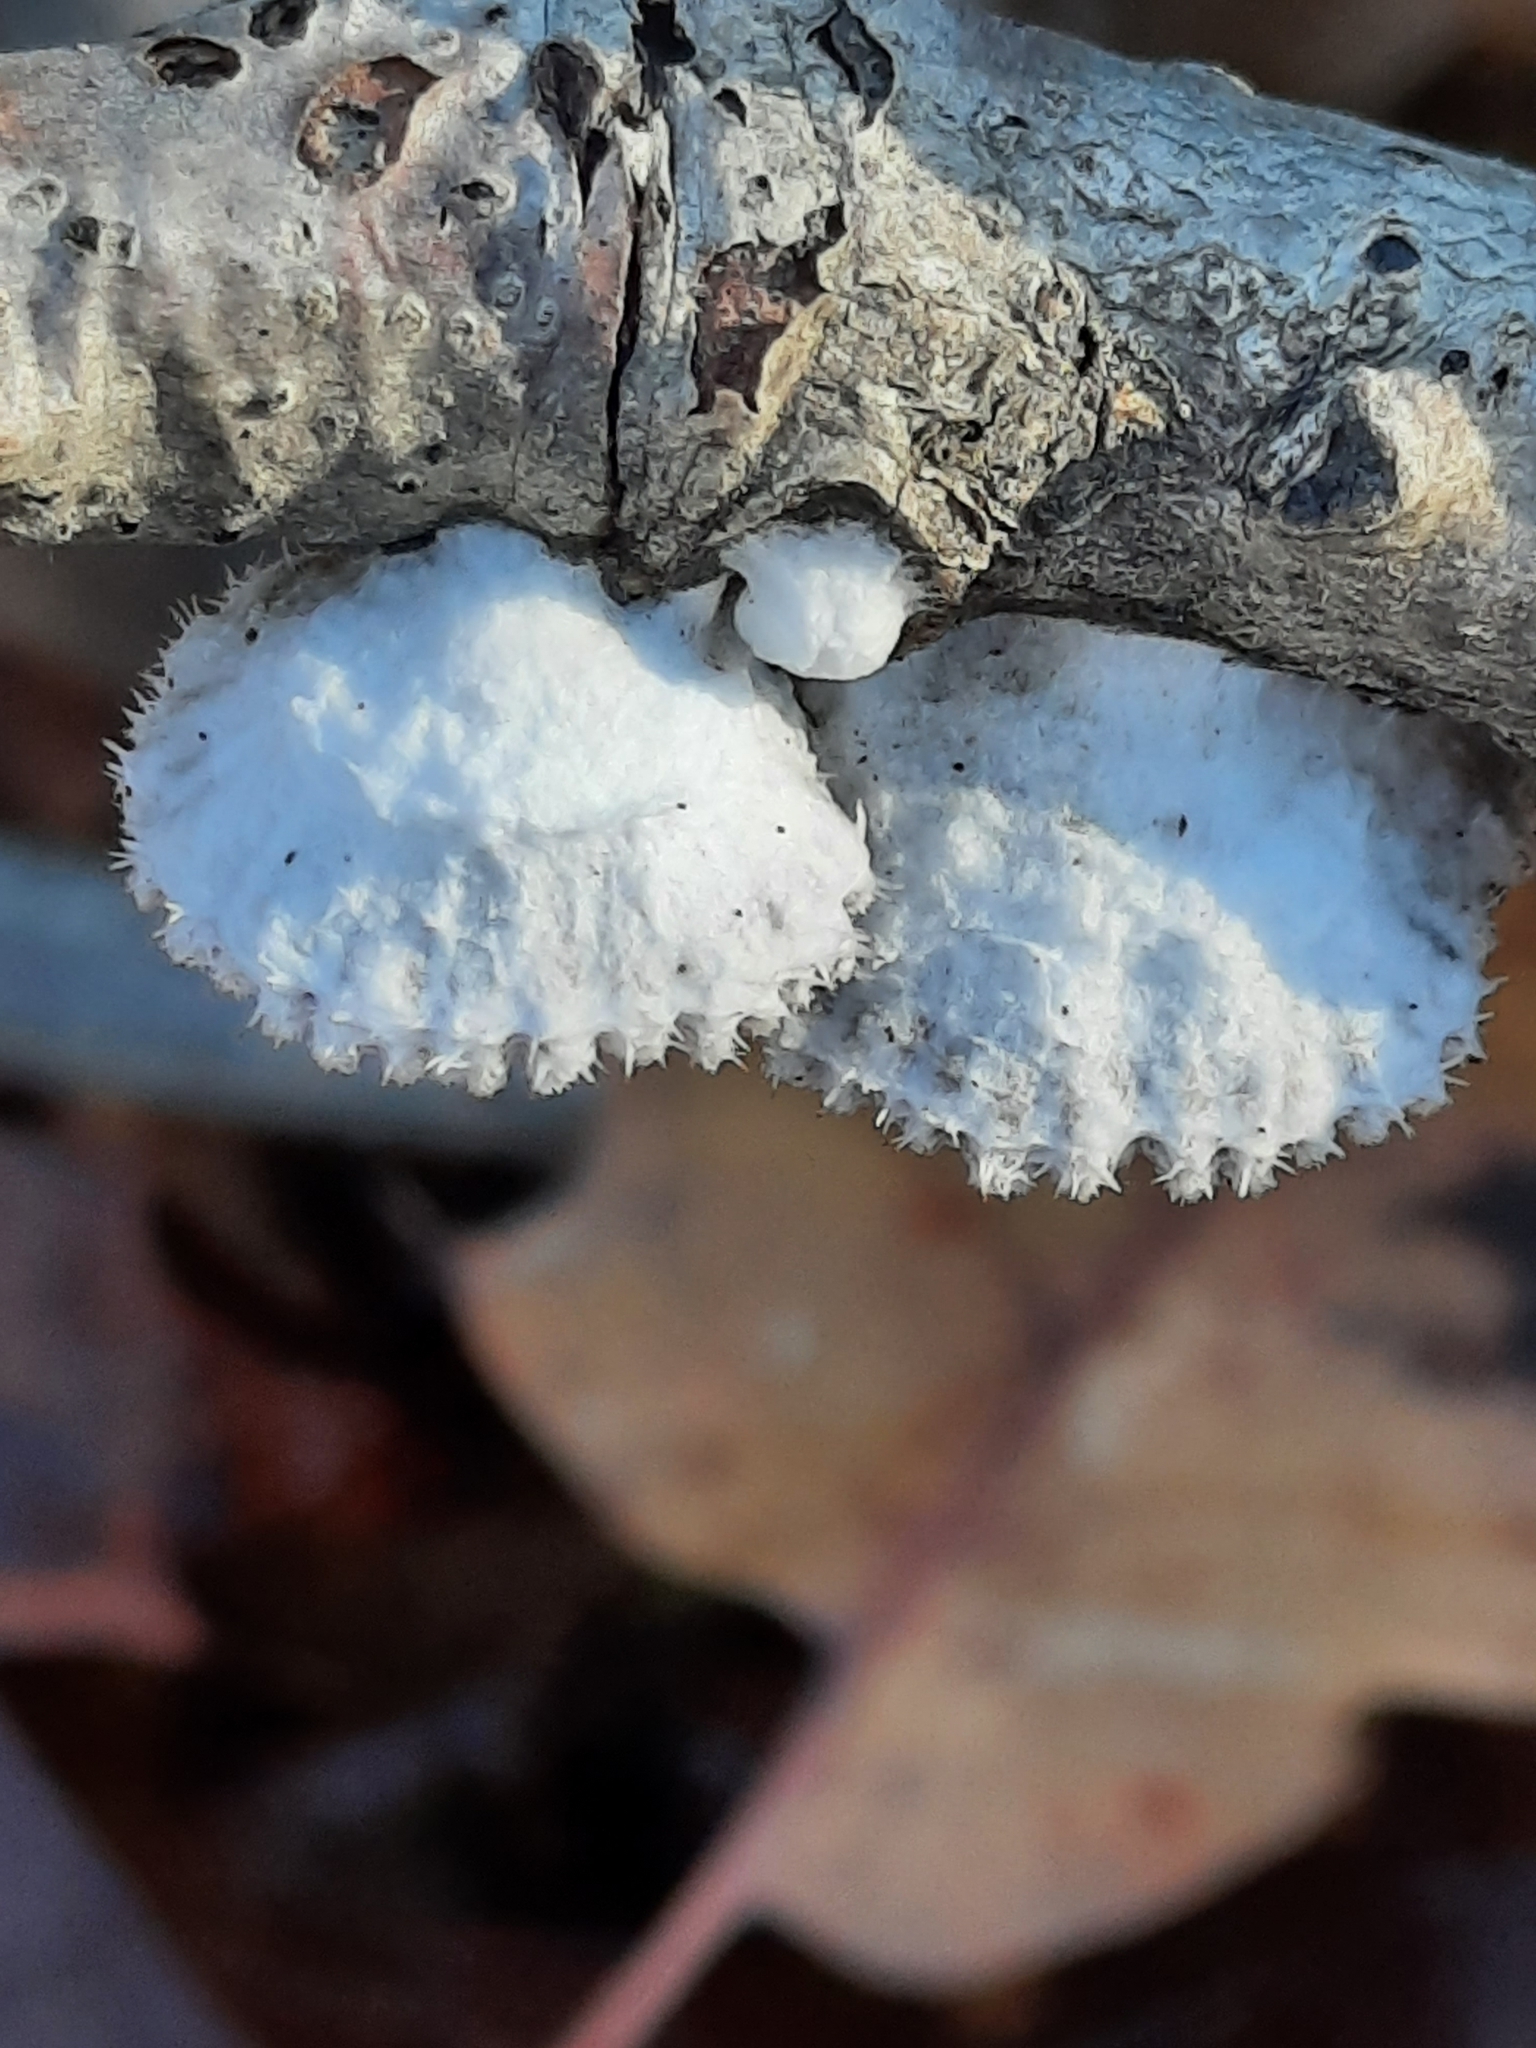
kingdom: Fungi
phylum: Basidiomycota
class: Agaricomycetes
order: Agaricales
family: Schizophyllaceae
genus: Schizophyllum
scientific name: Schizophyllum commune
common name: Common porecrust
